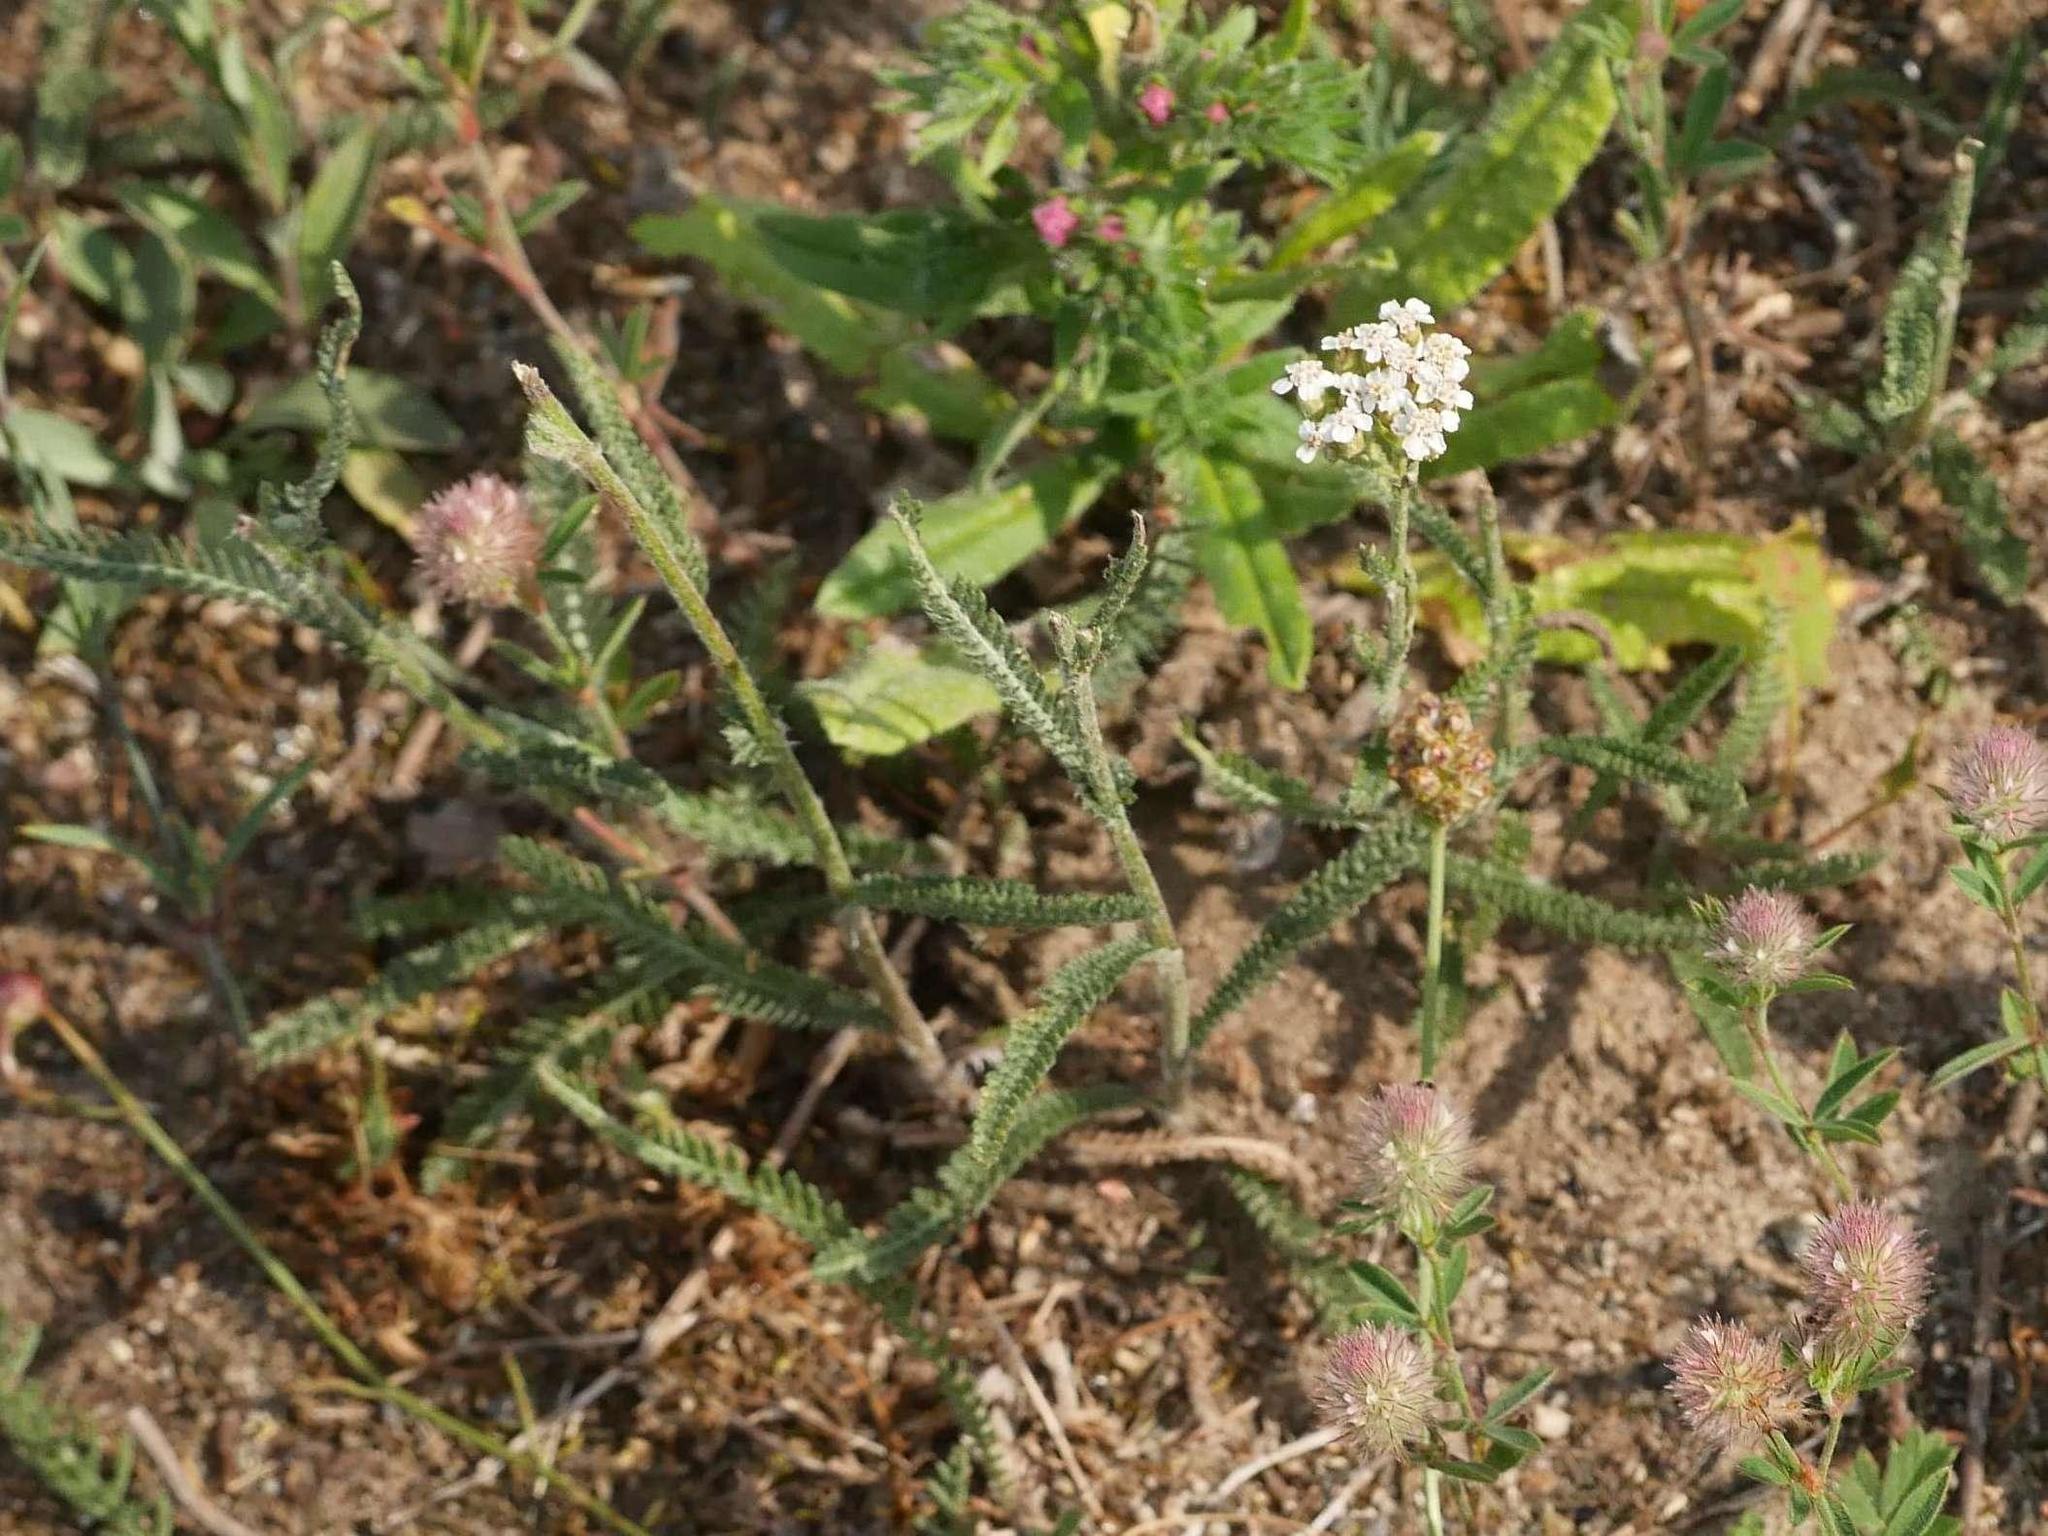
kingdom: Plantae
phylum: Tracheophyta
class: Magnoliopsida
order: Asterales
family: Asteraceae
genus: Achillea
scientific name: Achillea millefolium
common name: Yarrow
